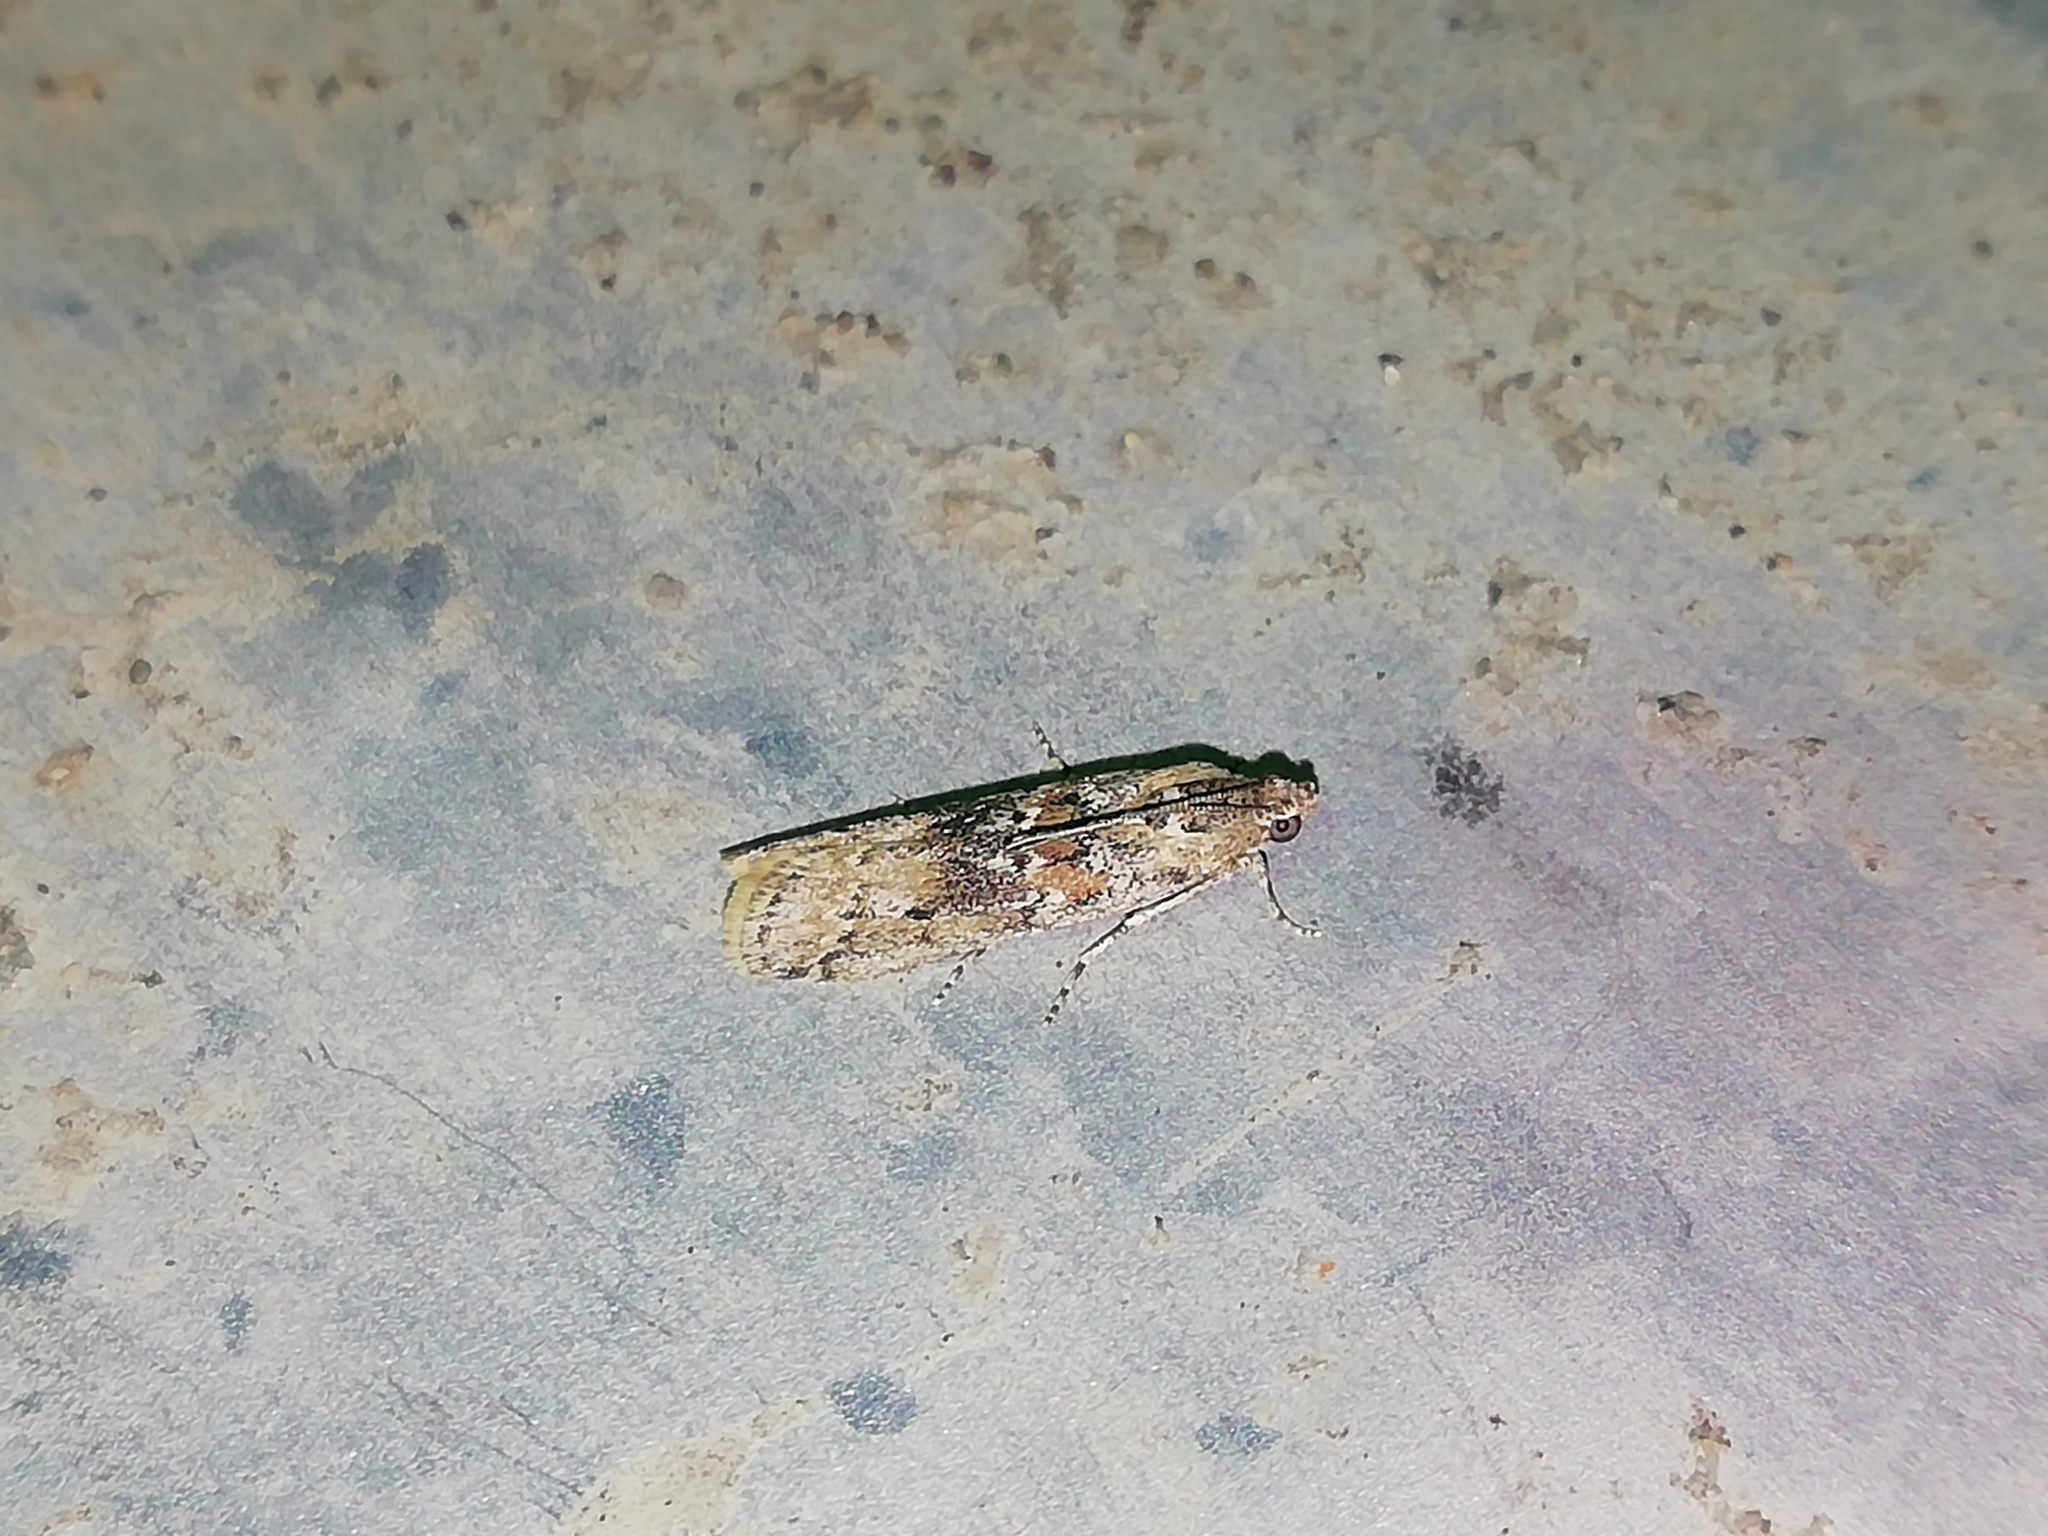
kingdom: Animalia
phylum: Arthropoda
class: Insecta
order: Lepidoptera
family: Pyralidae
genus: Ancylosis
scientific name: Ancylosis oblitella
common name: Saltmarsh knot-horn
